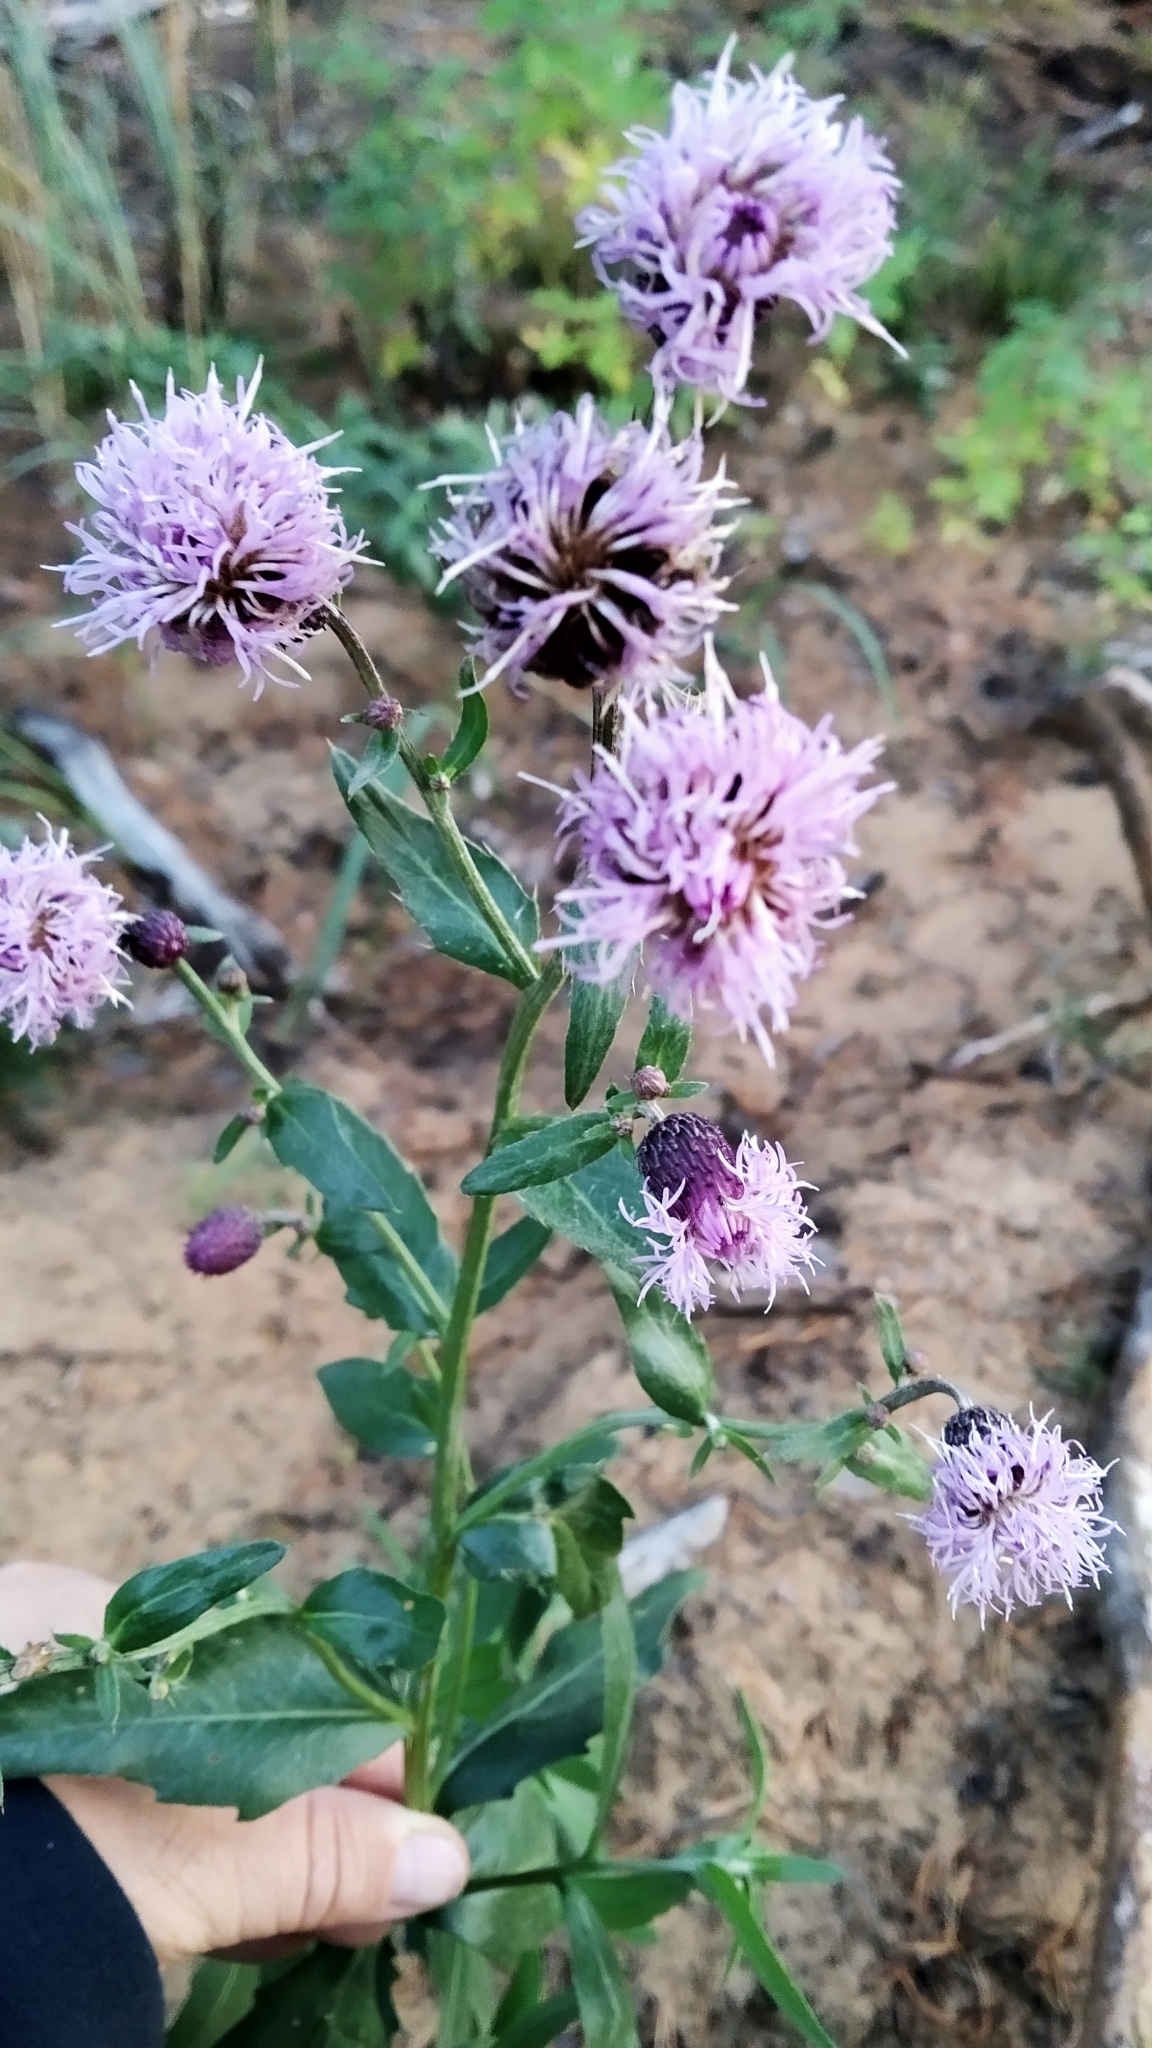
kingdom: Plantae
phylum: Tracheophyta
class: Magnoliopsida
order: Asterales
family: Asteraceae
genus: Cirsium
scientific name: Cirsium arvense
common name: Creeping thistle
